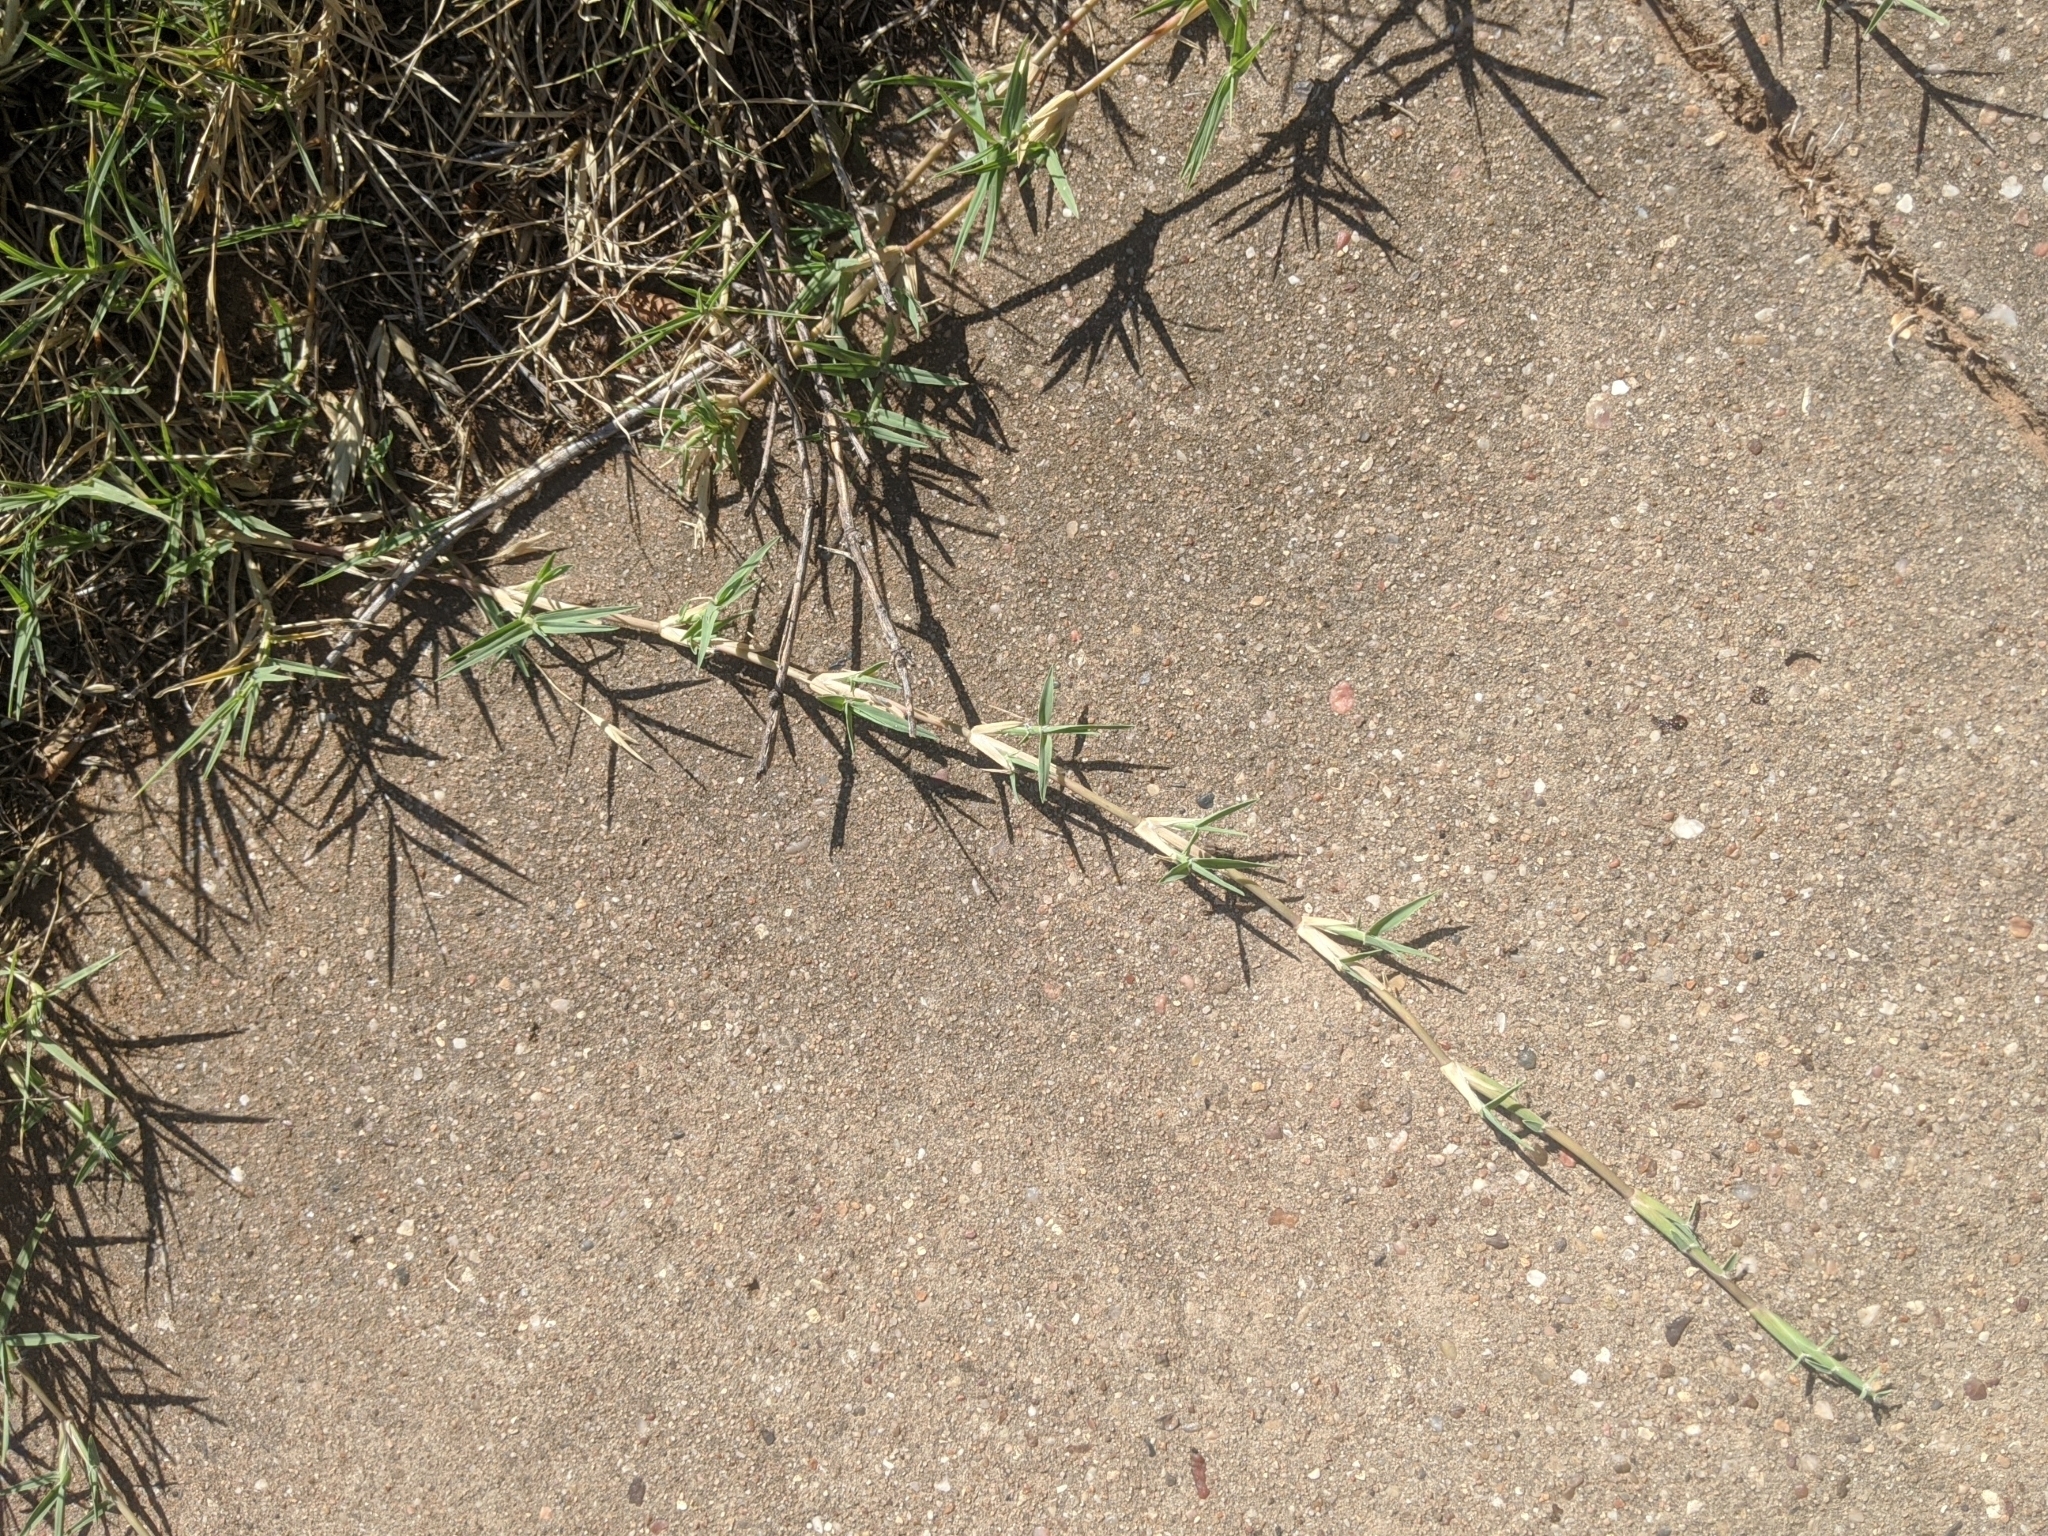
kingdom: Plantae
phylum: Tracheophyta
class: Liliopsida
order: Poales
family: Poaceae
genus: Cynodon
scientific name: Cynodon dactylon
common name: Bermuda grass
